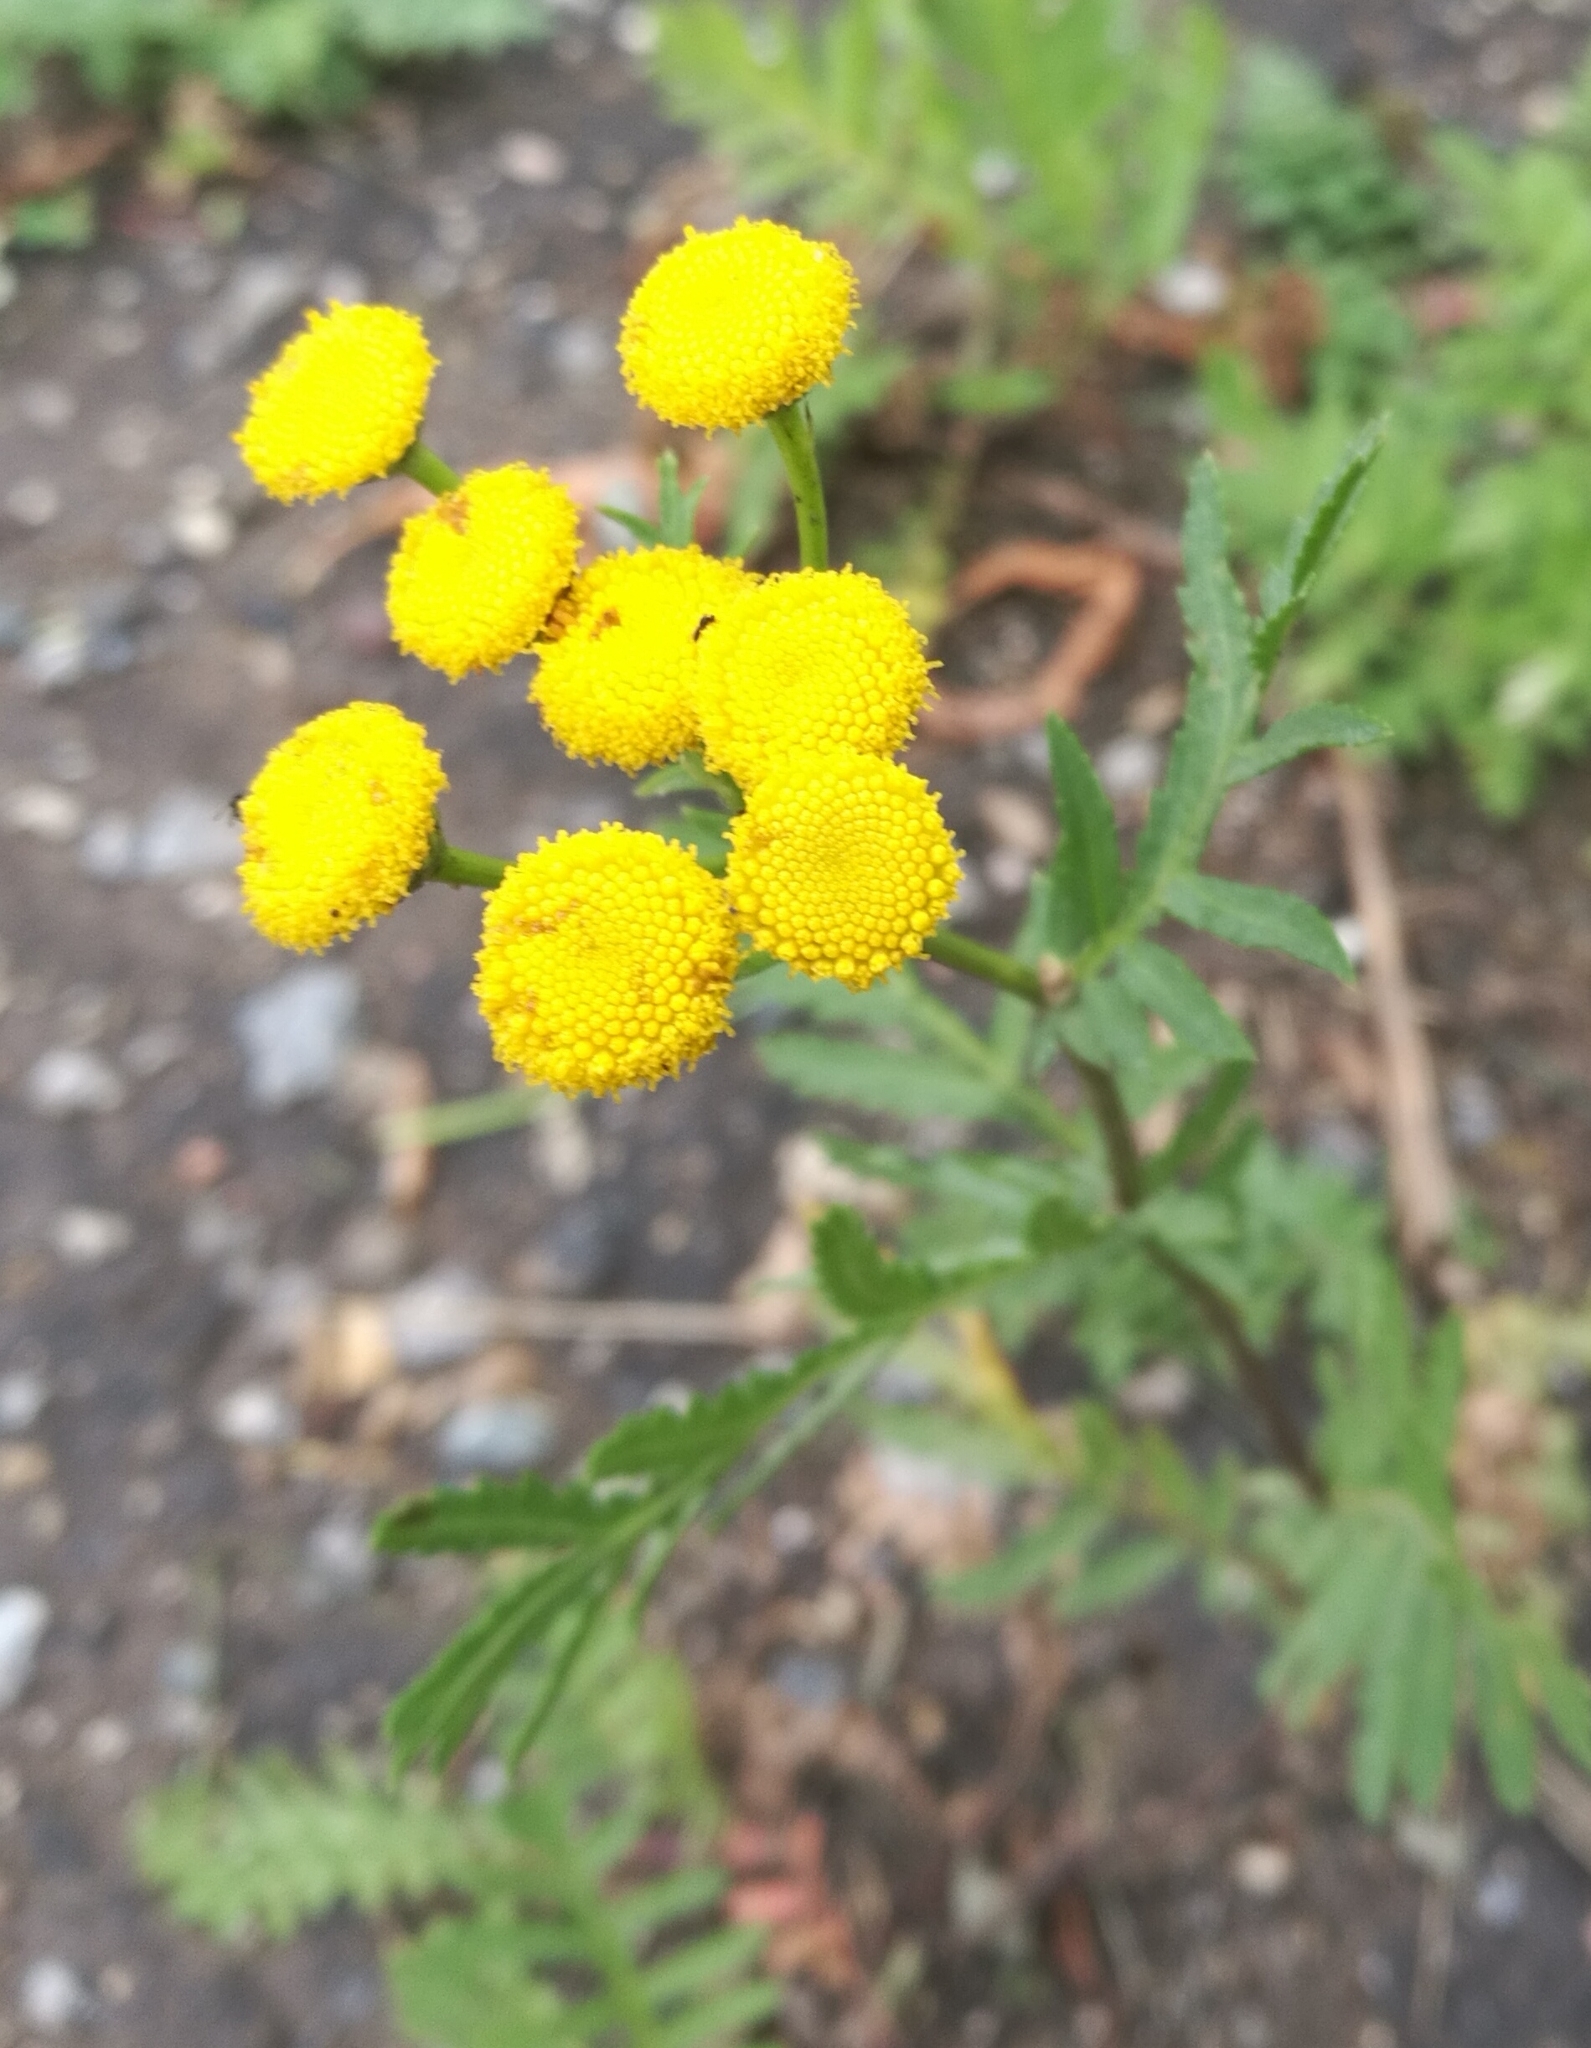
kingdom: Plantae
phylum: Tracheophyta
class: Magnoliopsida
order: Asterales
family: Asteraceae
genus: Tanacetum
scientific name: Tanacetum vulgare
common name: Common tansy
